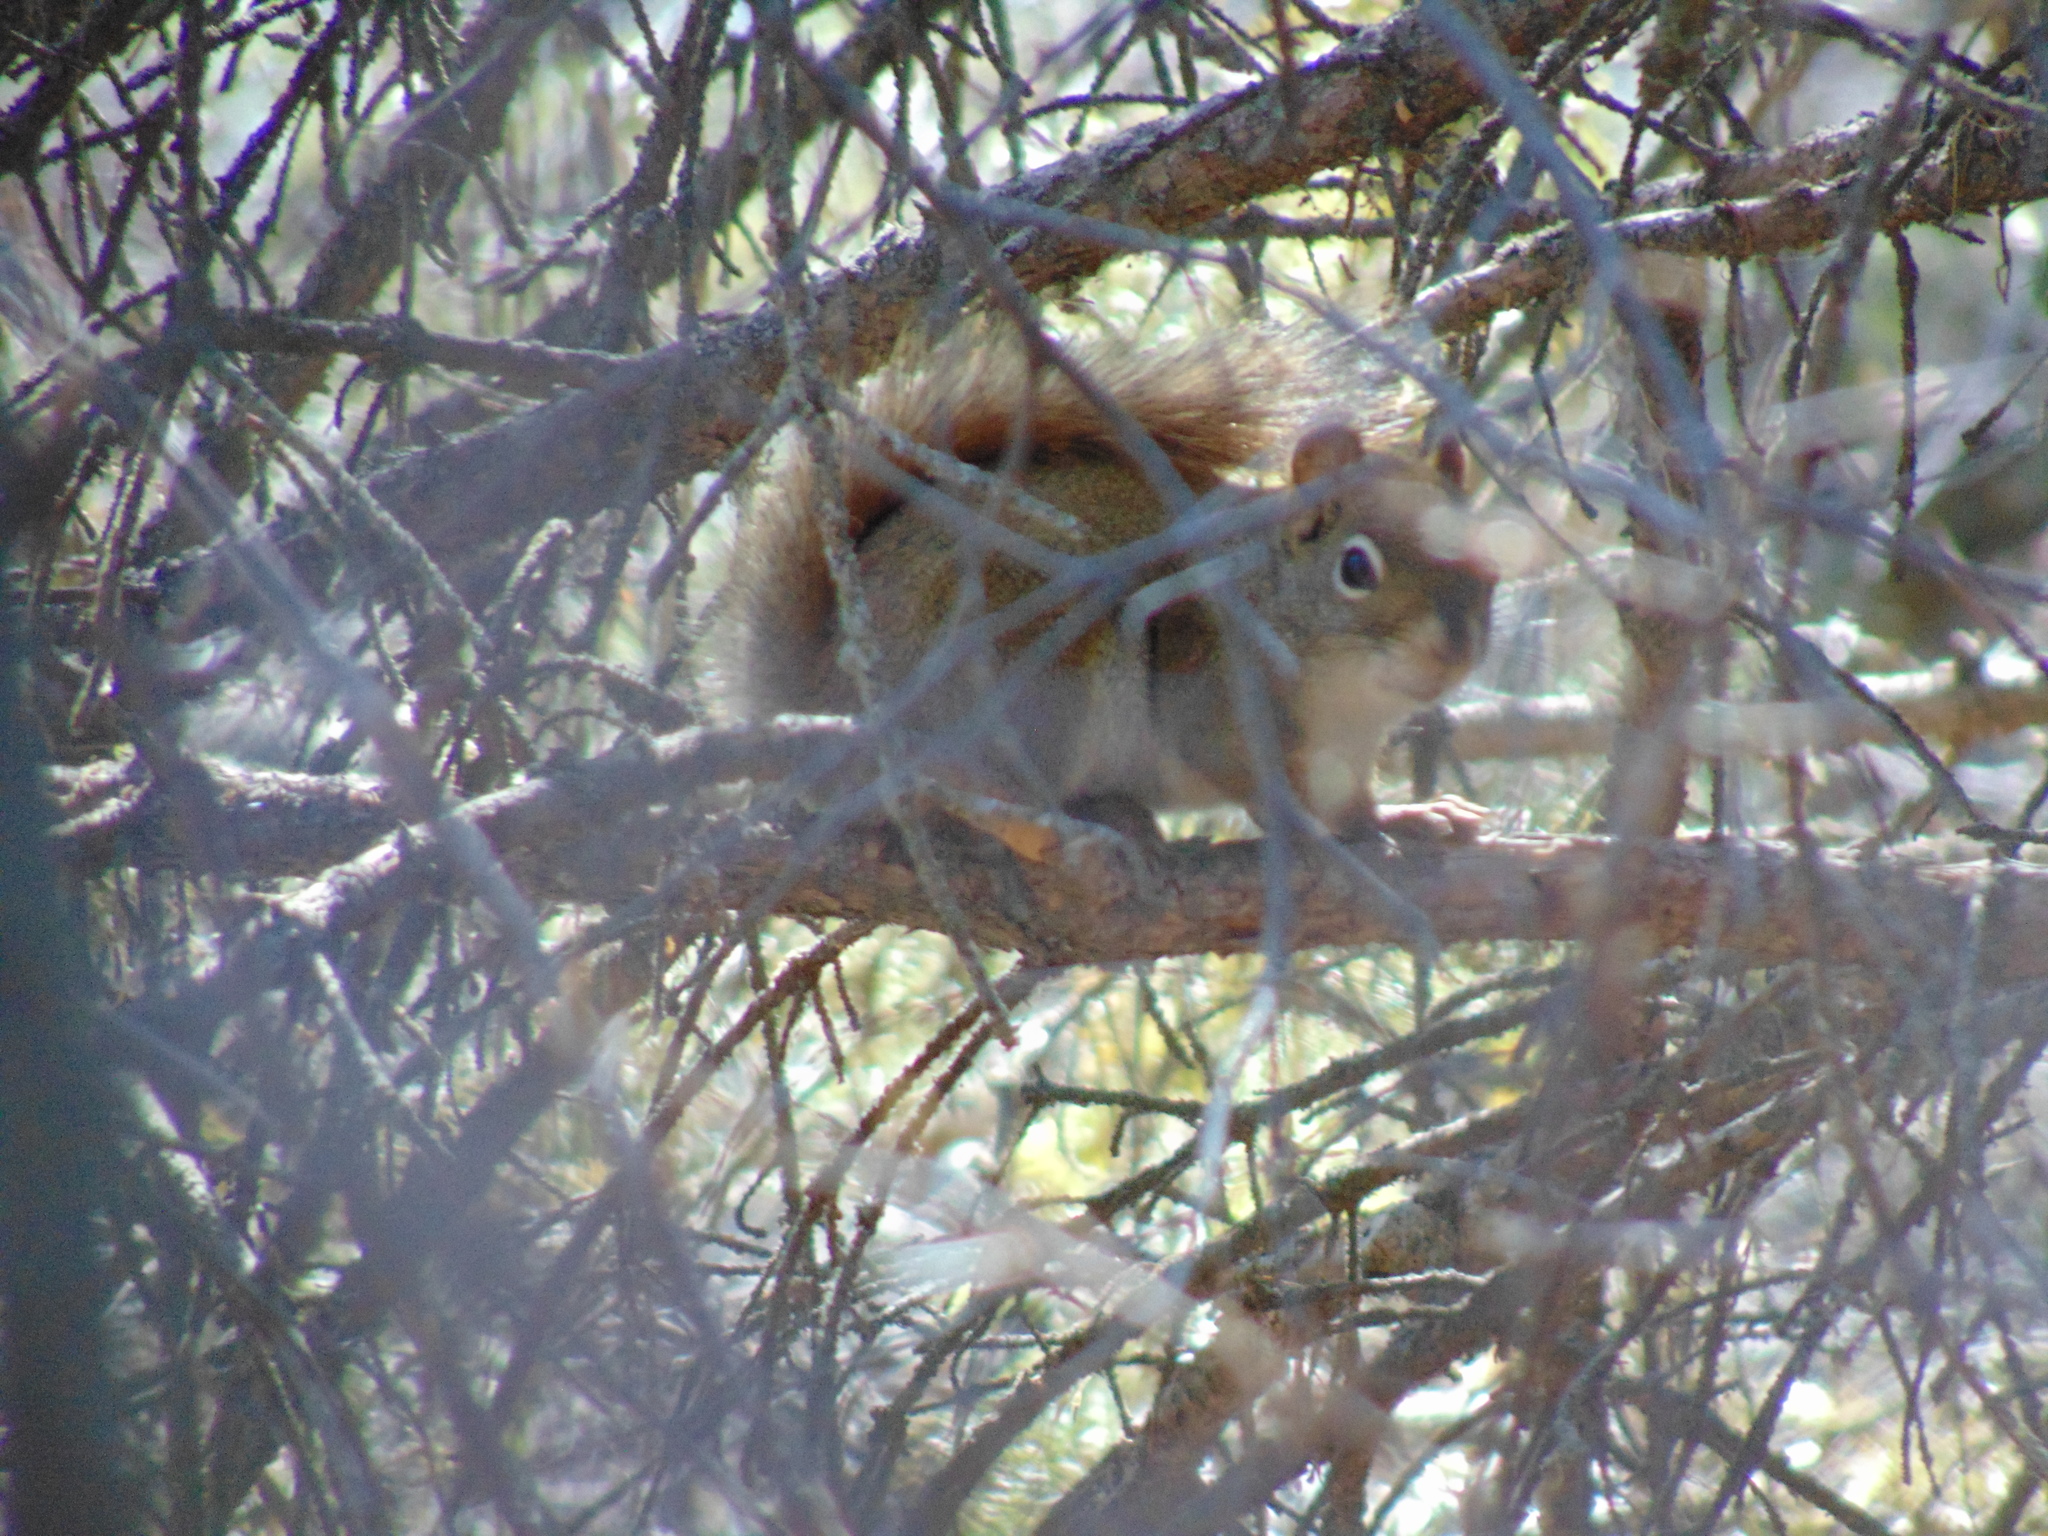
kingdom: Animalia
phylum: Chordata
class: Mammalia
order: Rodentia
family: Sciuridae
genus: Tamiasciurus
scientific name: Tamiasciurus hudsonicus
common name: Red squirrel
